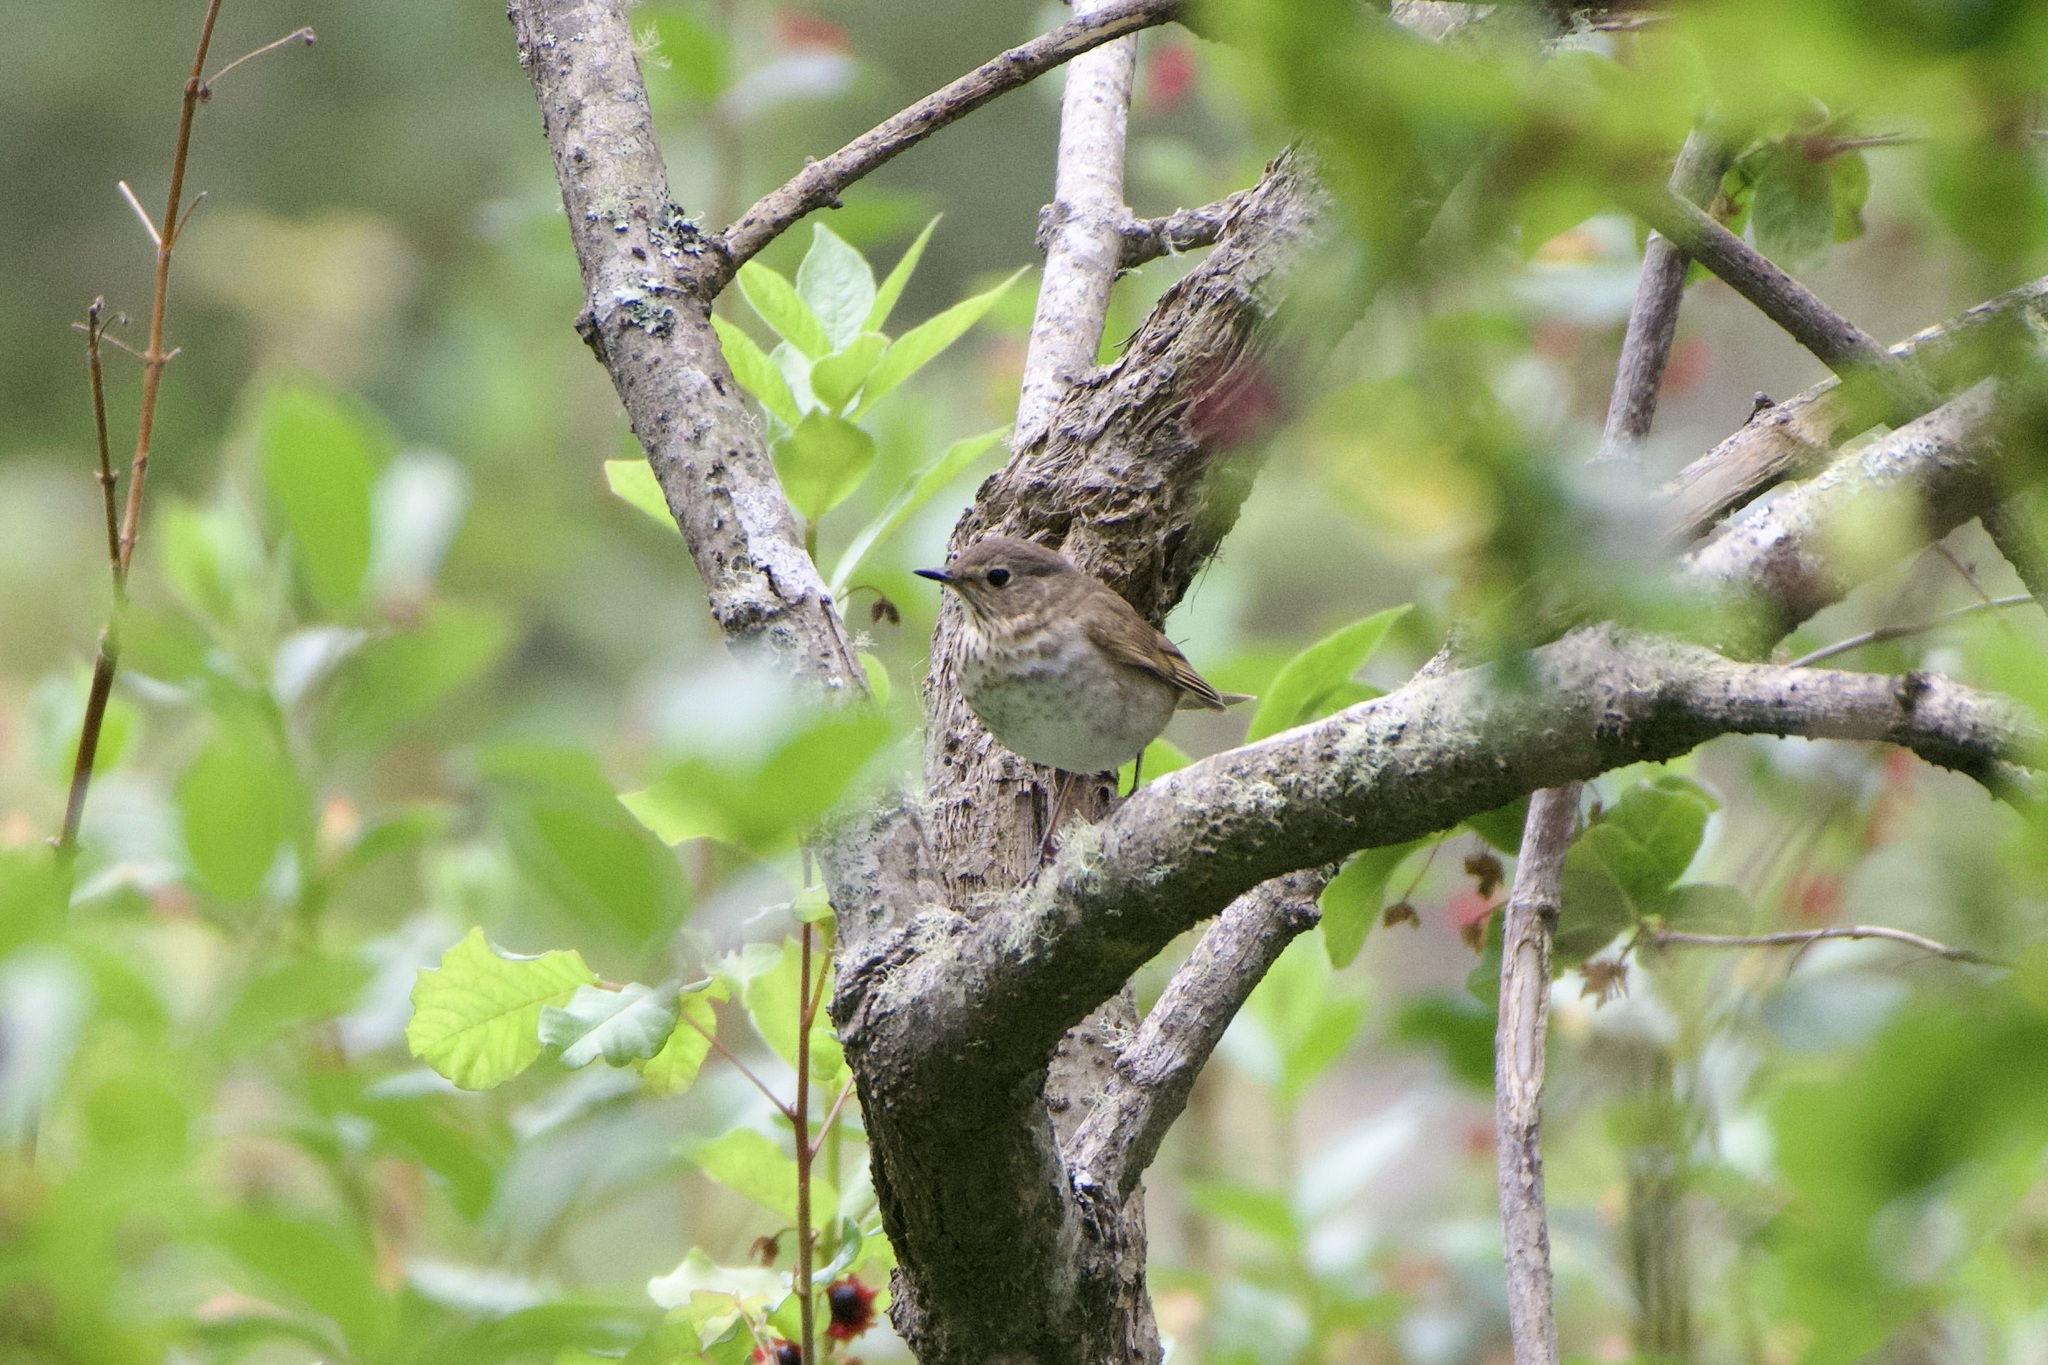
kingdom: Animalia
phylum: Chordata
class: Aves
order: Passeriformes
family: Turdidae
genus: Catharus
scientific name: Catharus ustulatus
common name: Swainson's thrush
